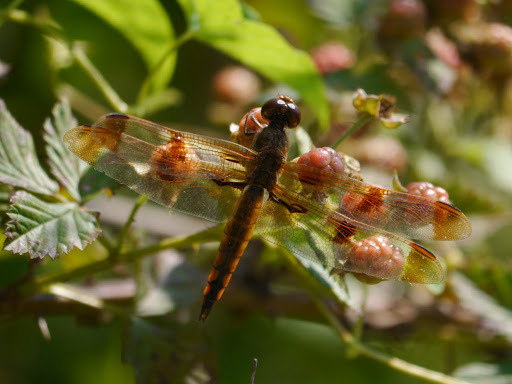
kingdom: Animalia
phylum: Arthropoda
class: Insecta
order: Odonata
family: Libellulidae
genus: Libellula
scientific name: Libellula semifasciata
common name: Painted skimmer
